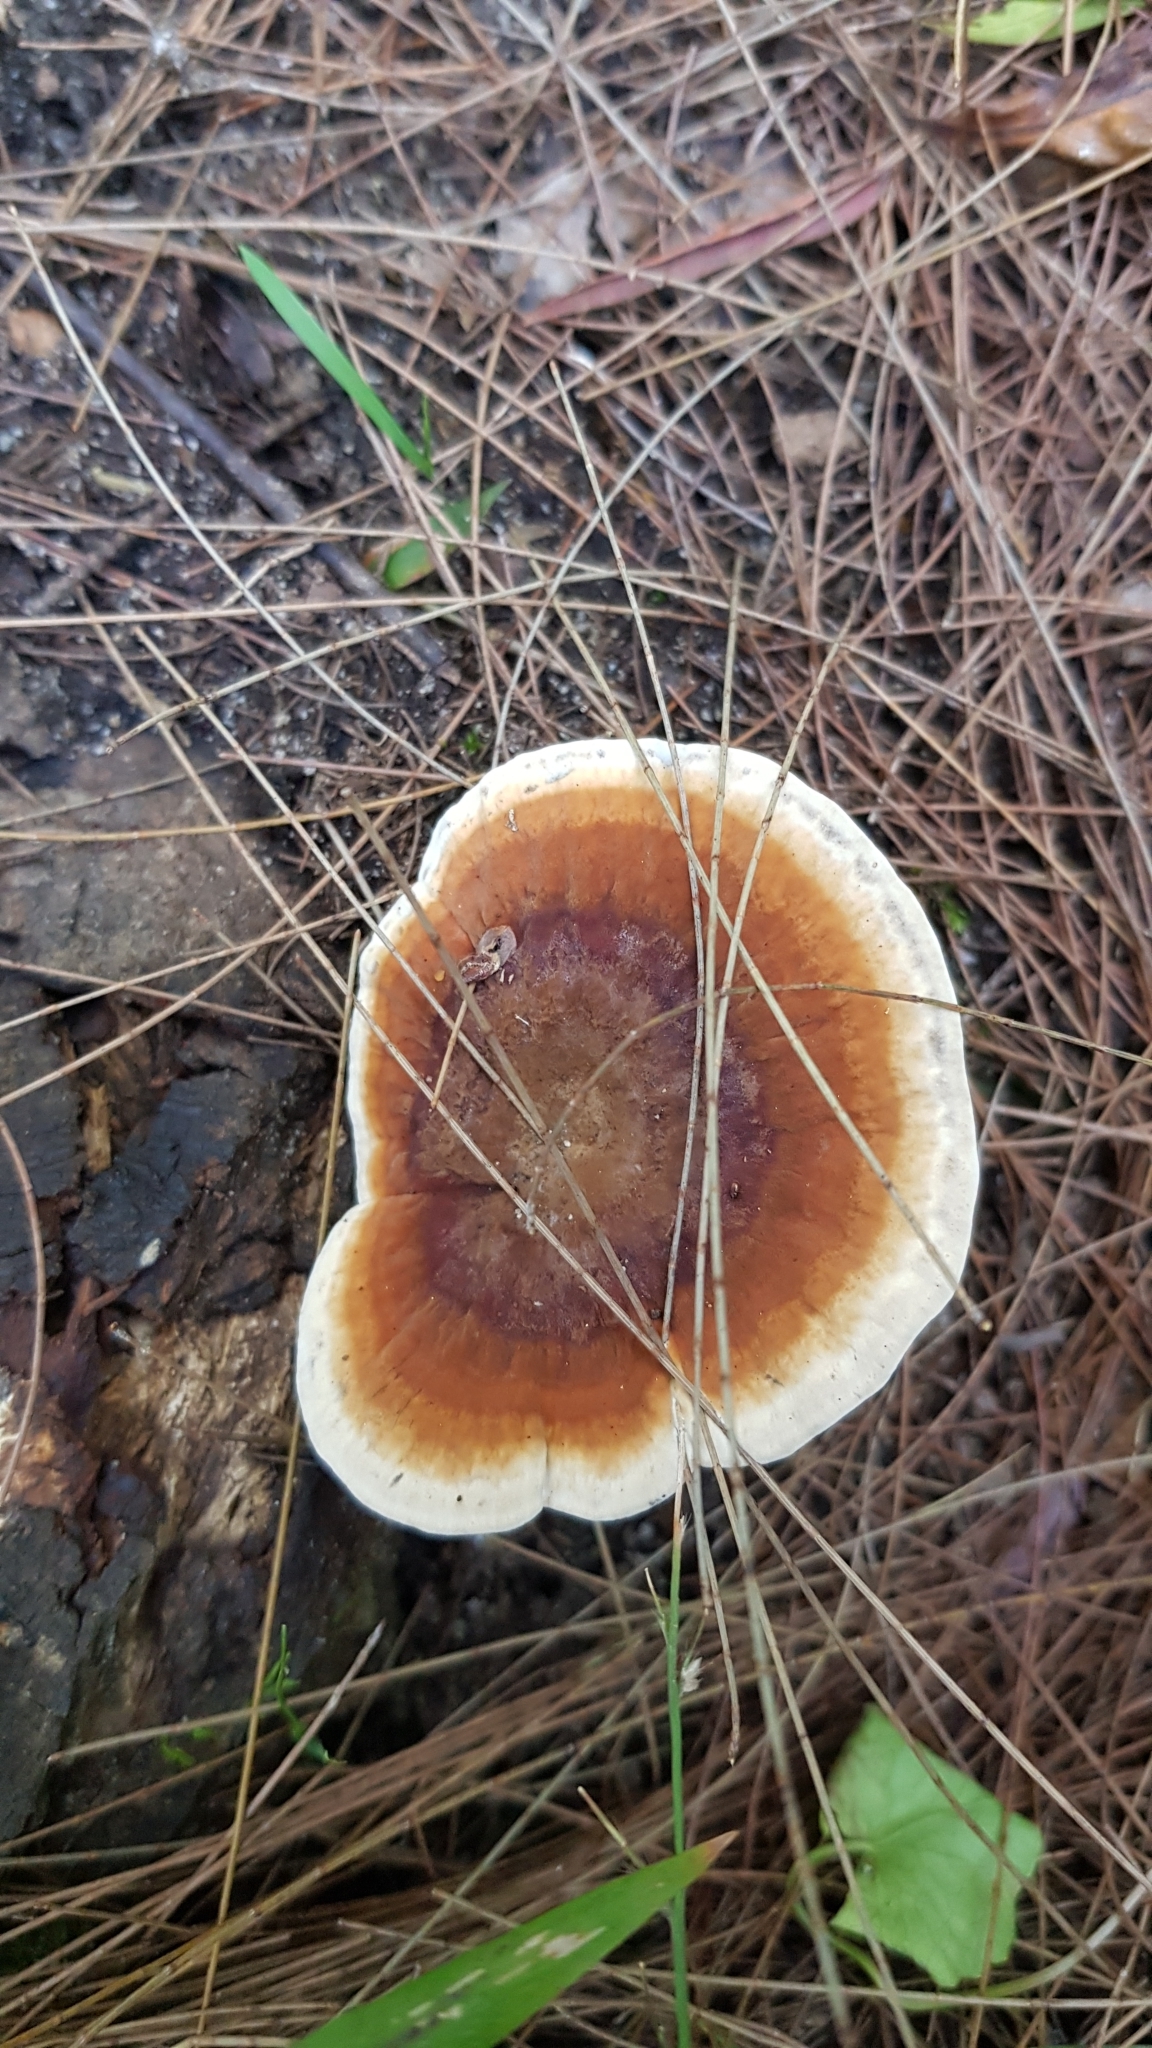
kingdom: Fungi
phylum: Basidiomycota
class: Agaricomycetes
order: Polyporales
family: Ganodermataceae
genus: Sanguinoderma
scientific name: Sanguinoderma rude
